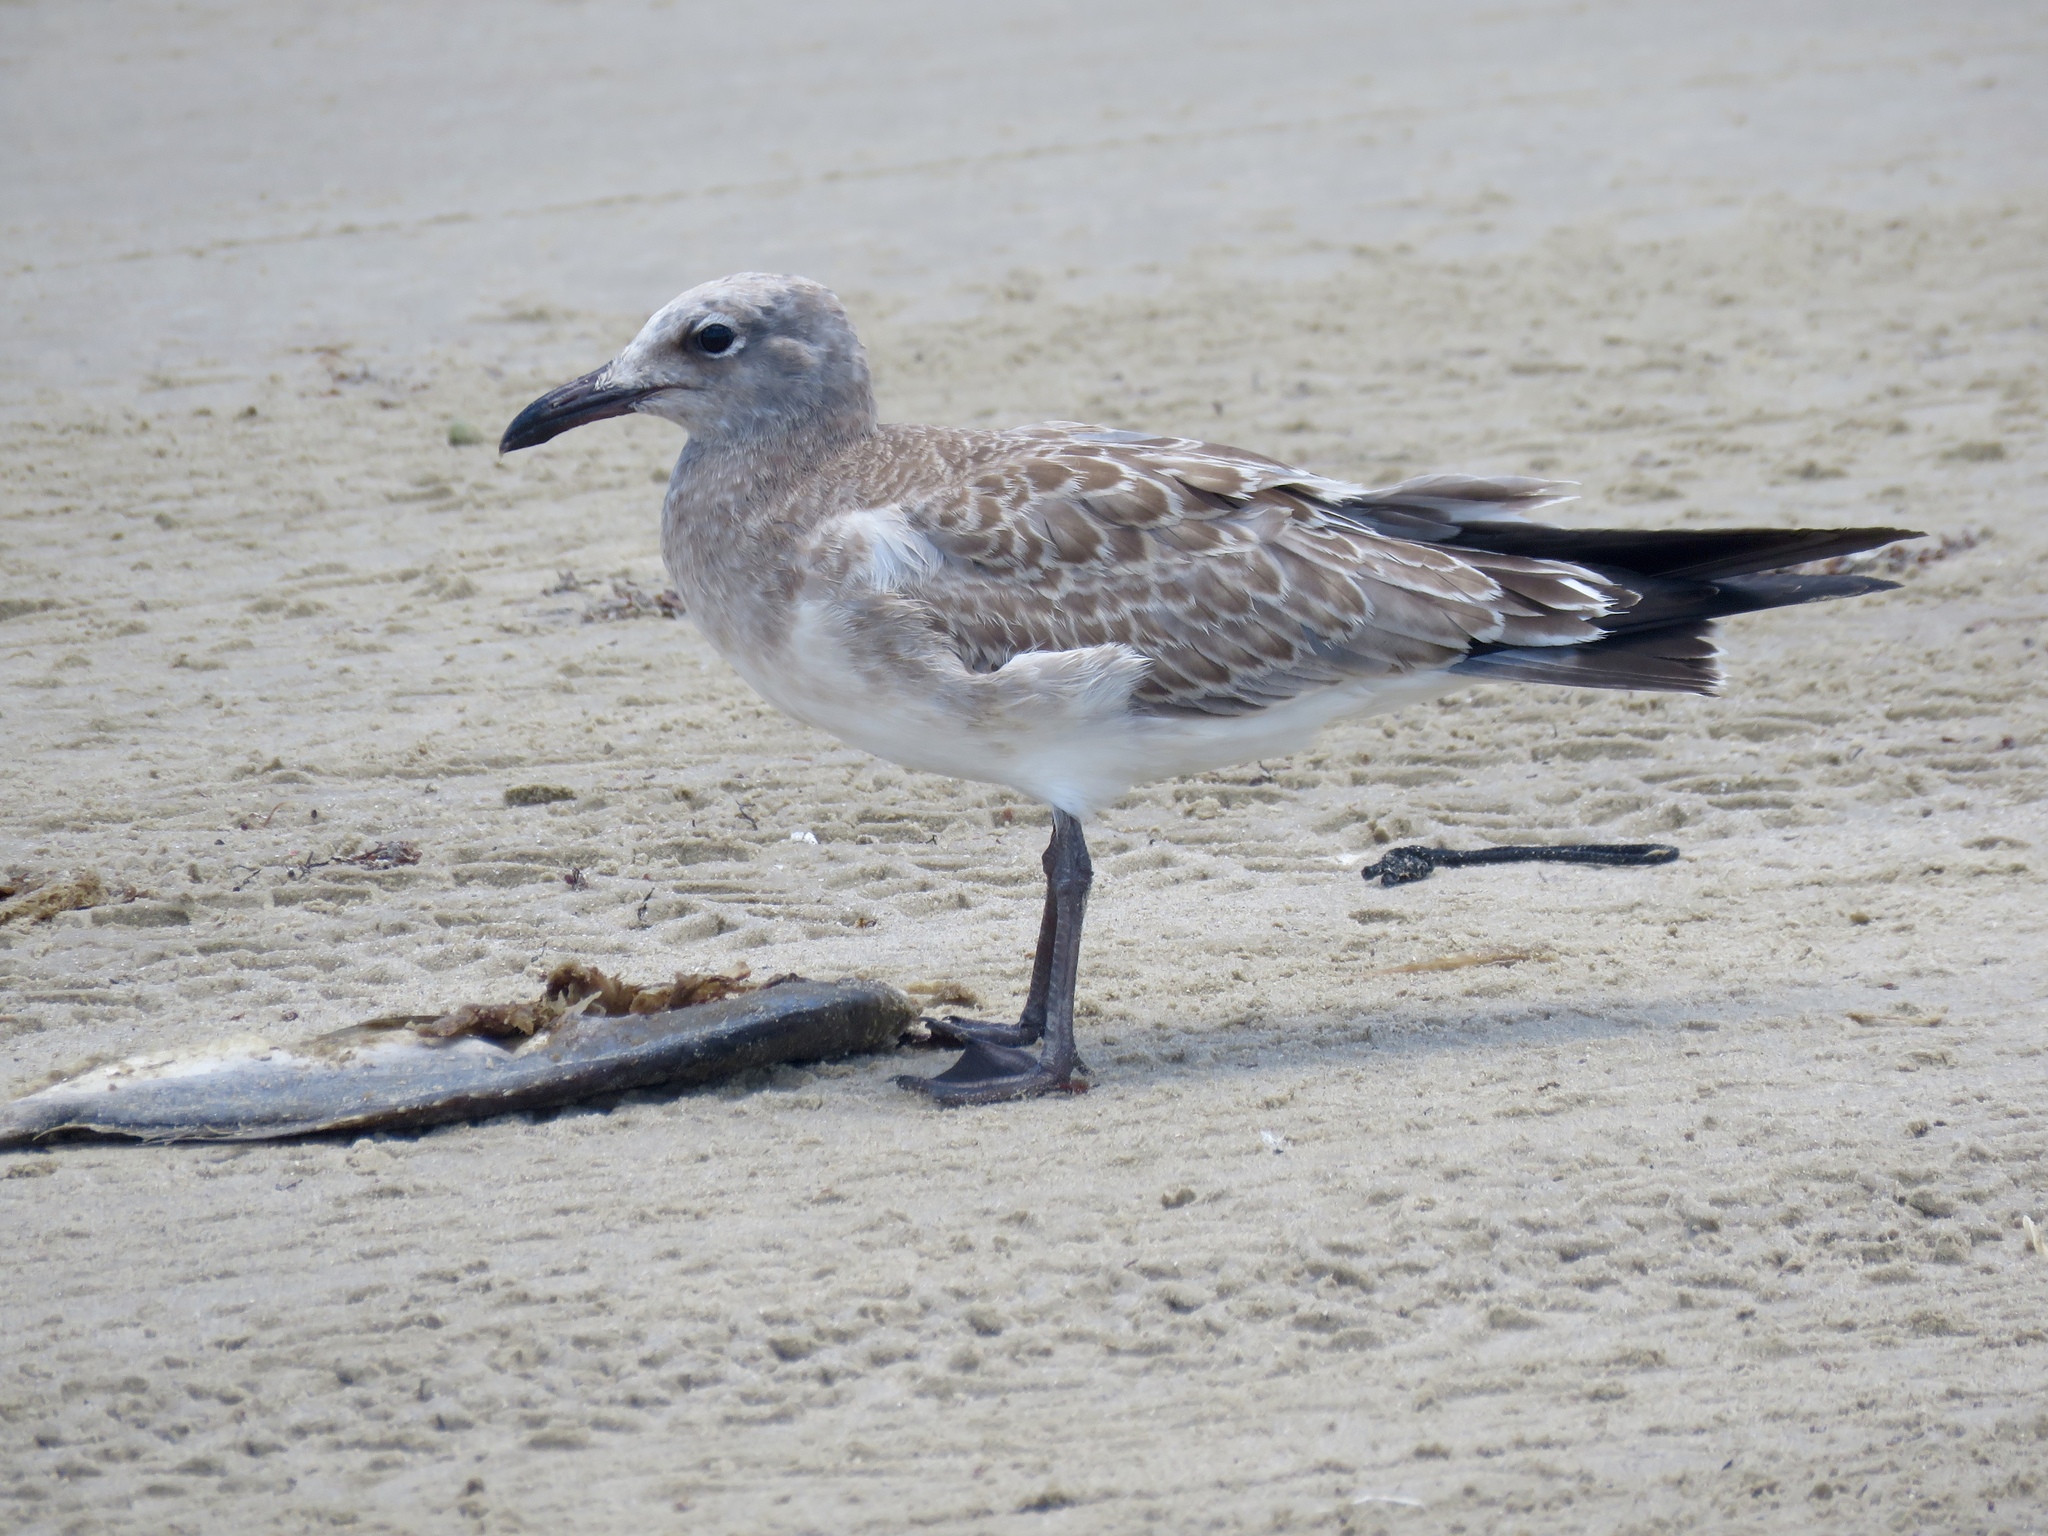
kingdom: Animalia
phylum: Chordata
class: Aves
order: Charadriiformes
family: Laridae
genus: Leucophaeus
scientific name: Leucophaeus atricilla
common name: Laughing gull
